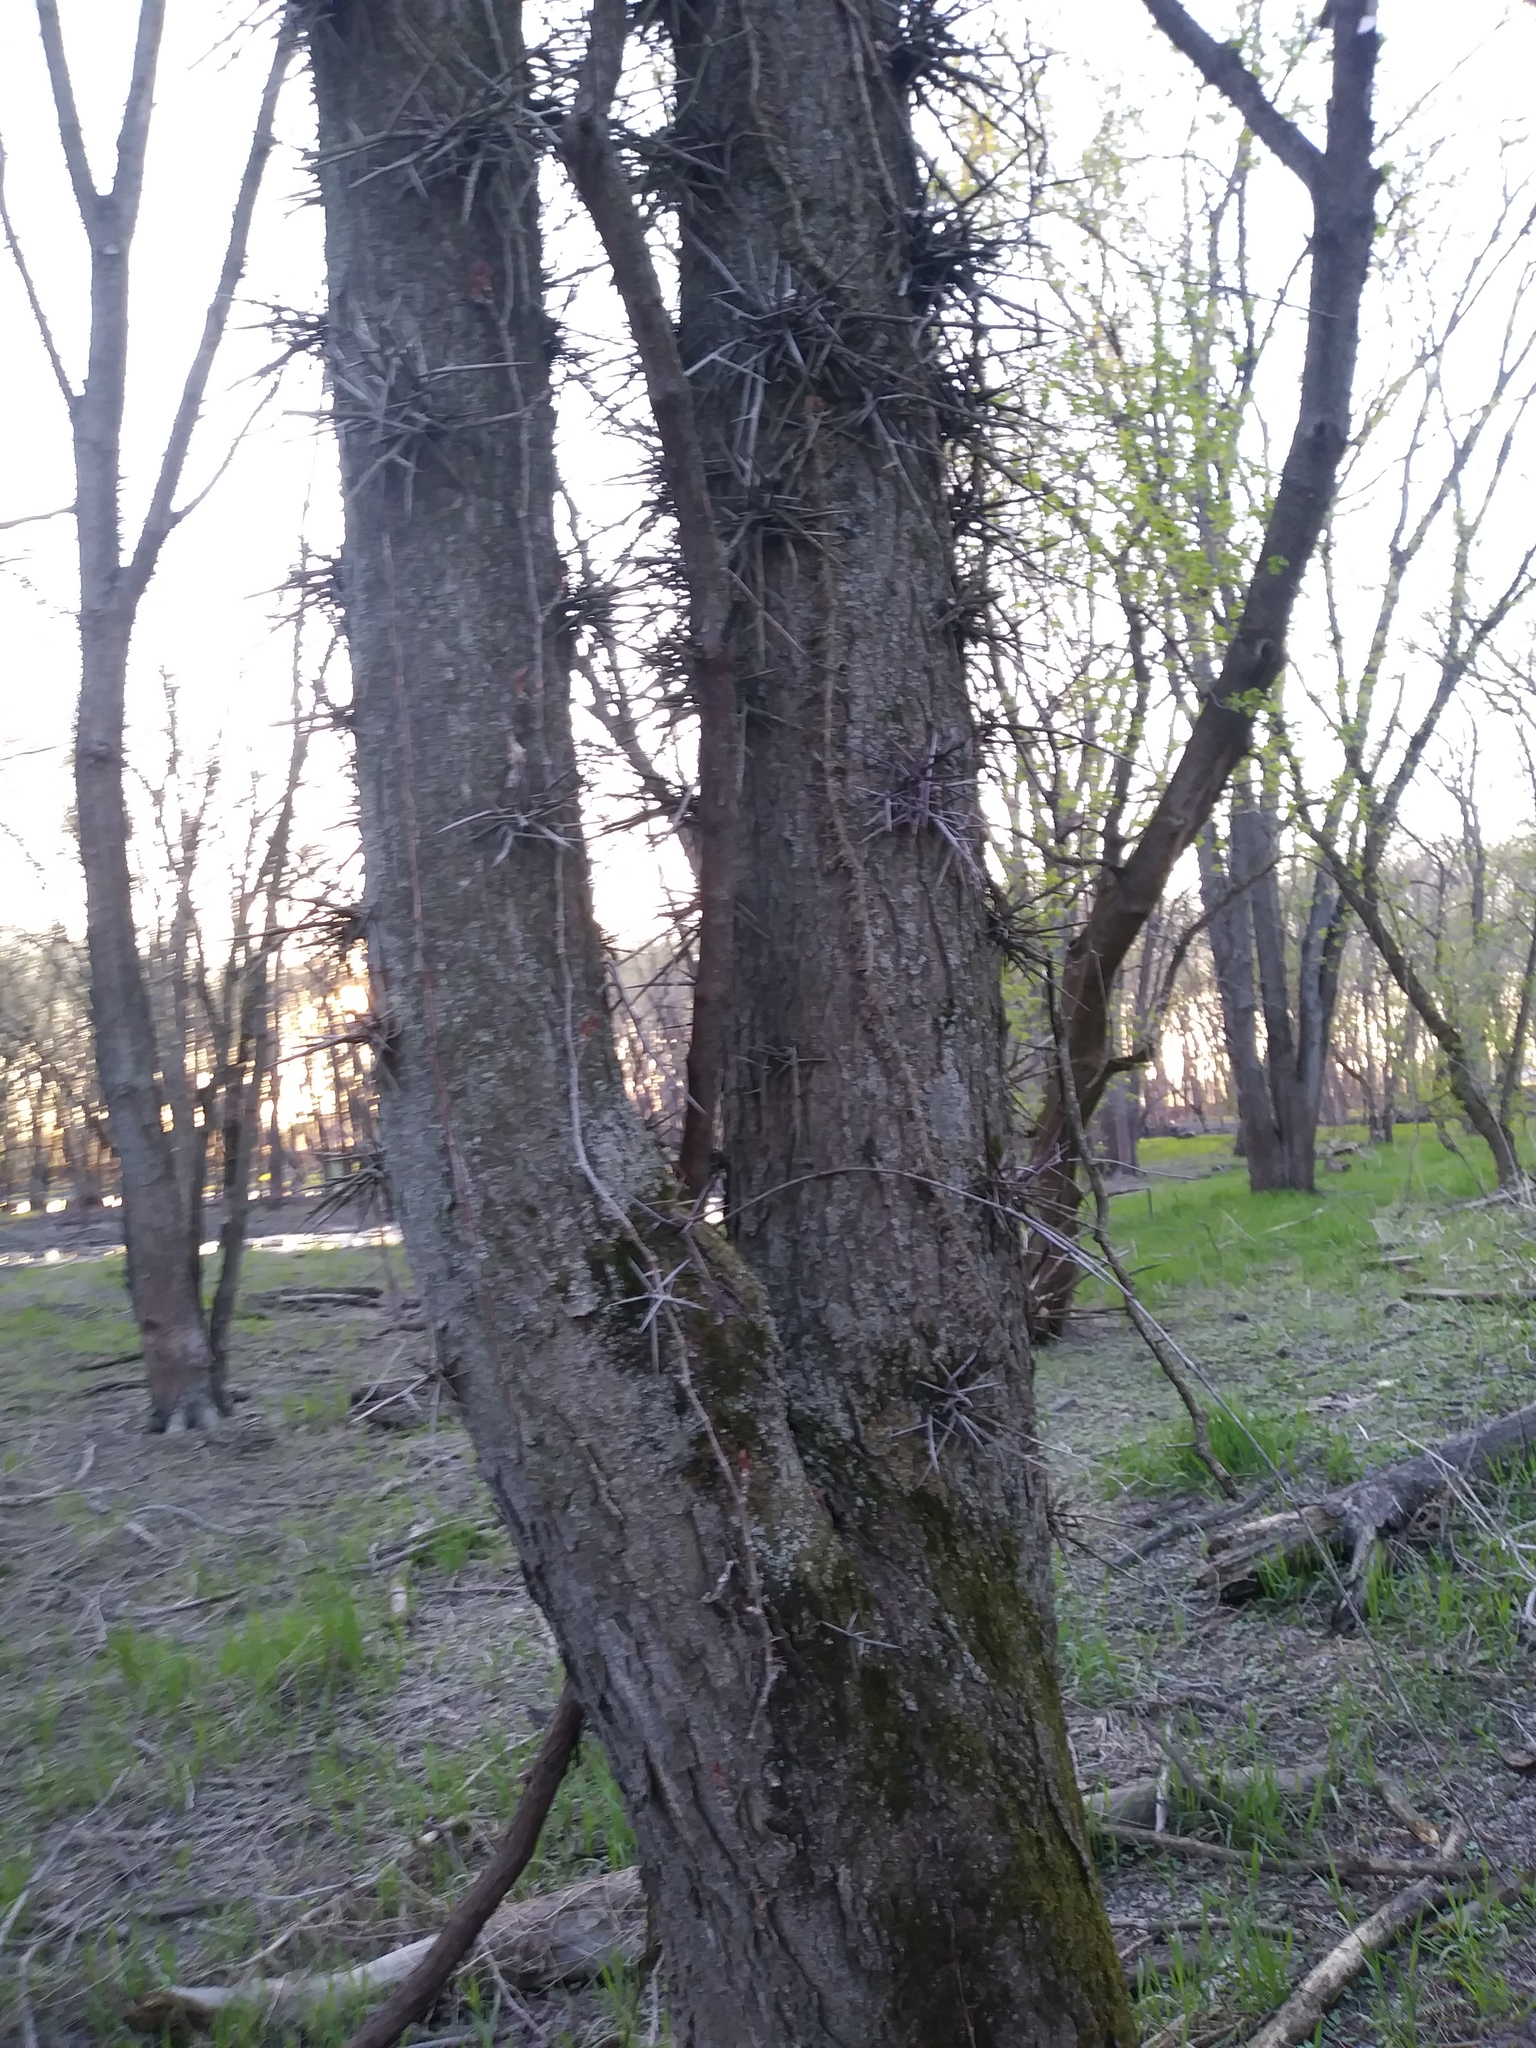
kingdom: Plantae
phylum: Tracheophyta
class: Magnoliopsida
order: Fabales
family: Fabaceae
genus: Gleditsia
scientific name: Gleditsia triacanthos
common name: Common honeylocust
